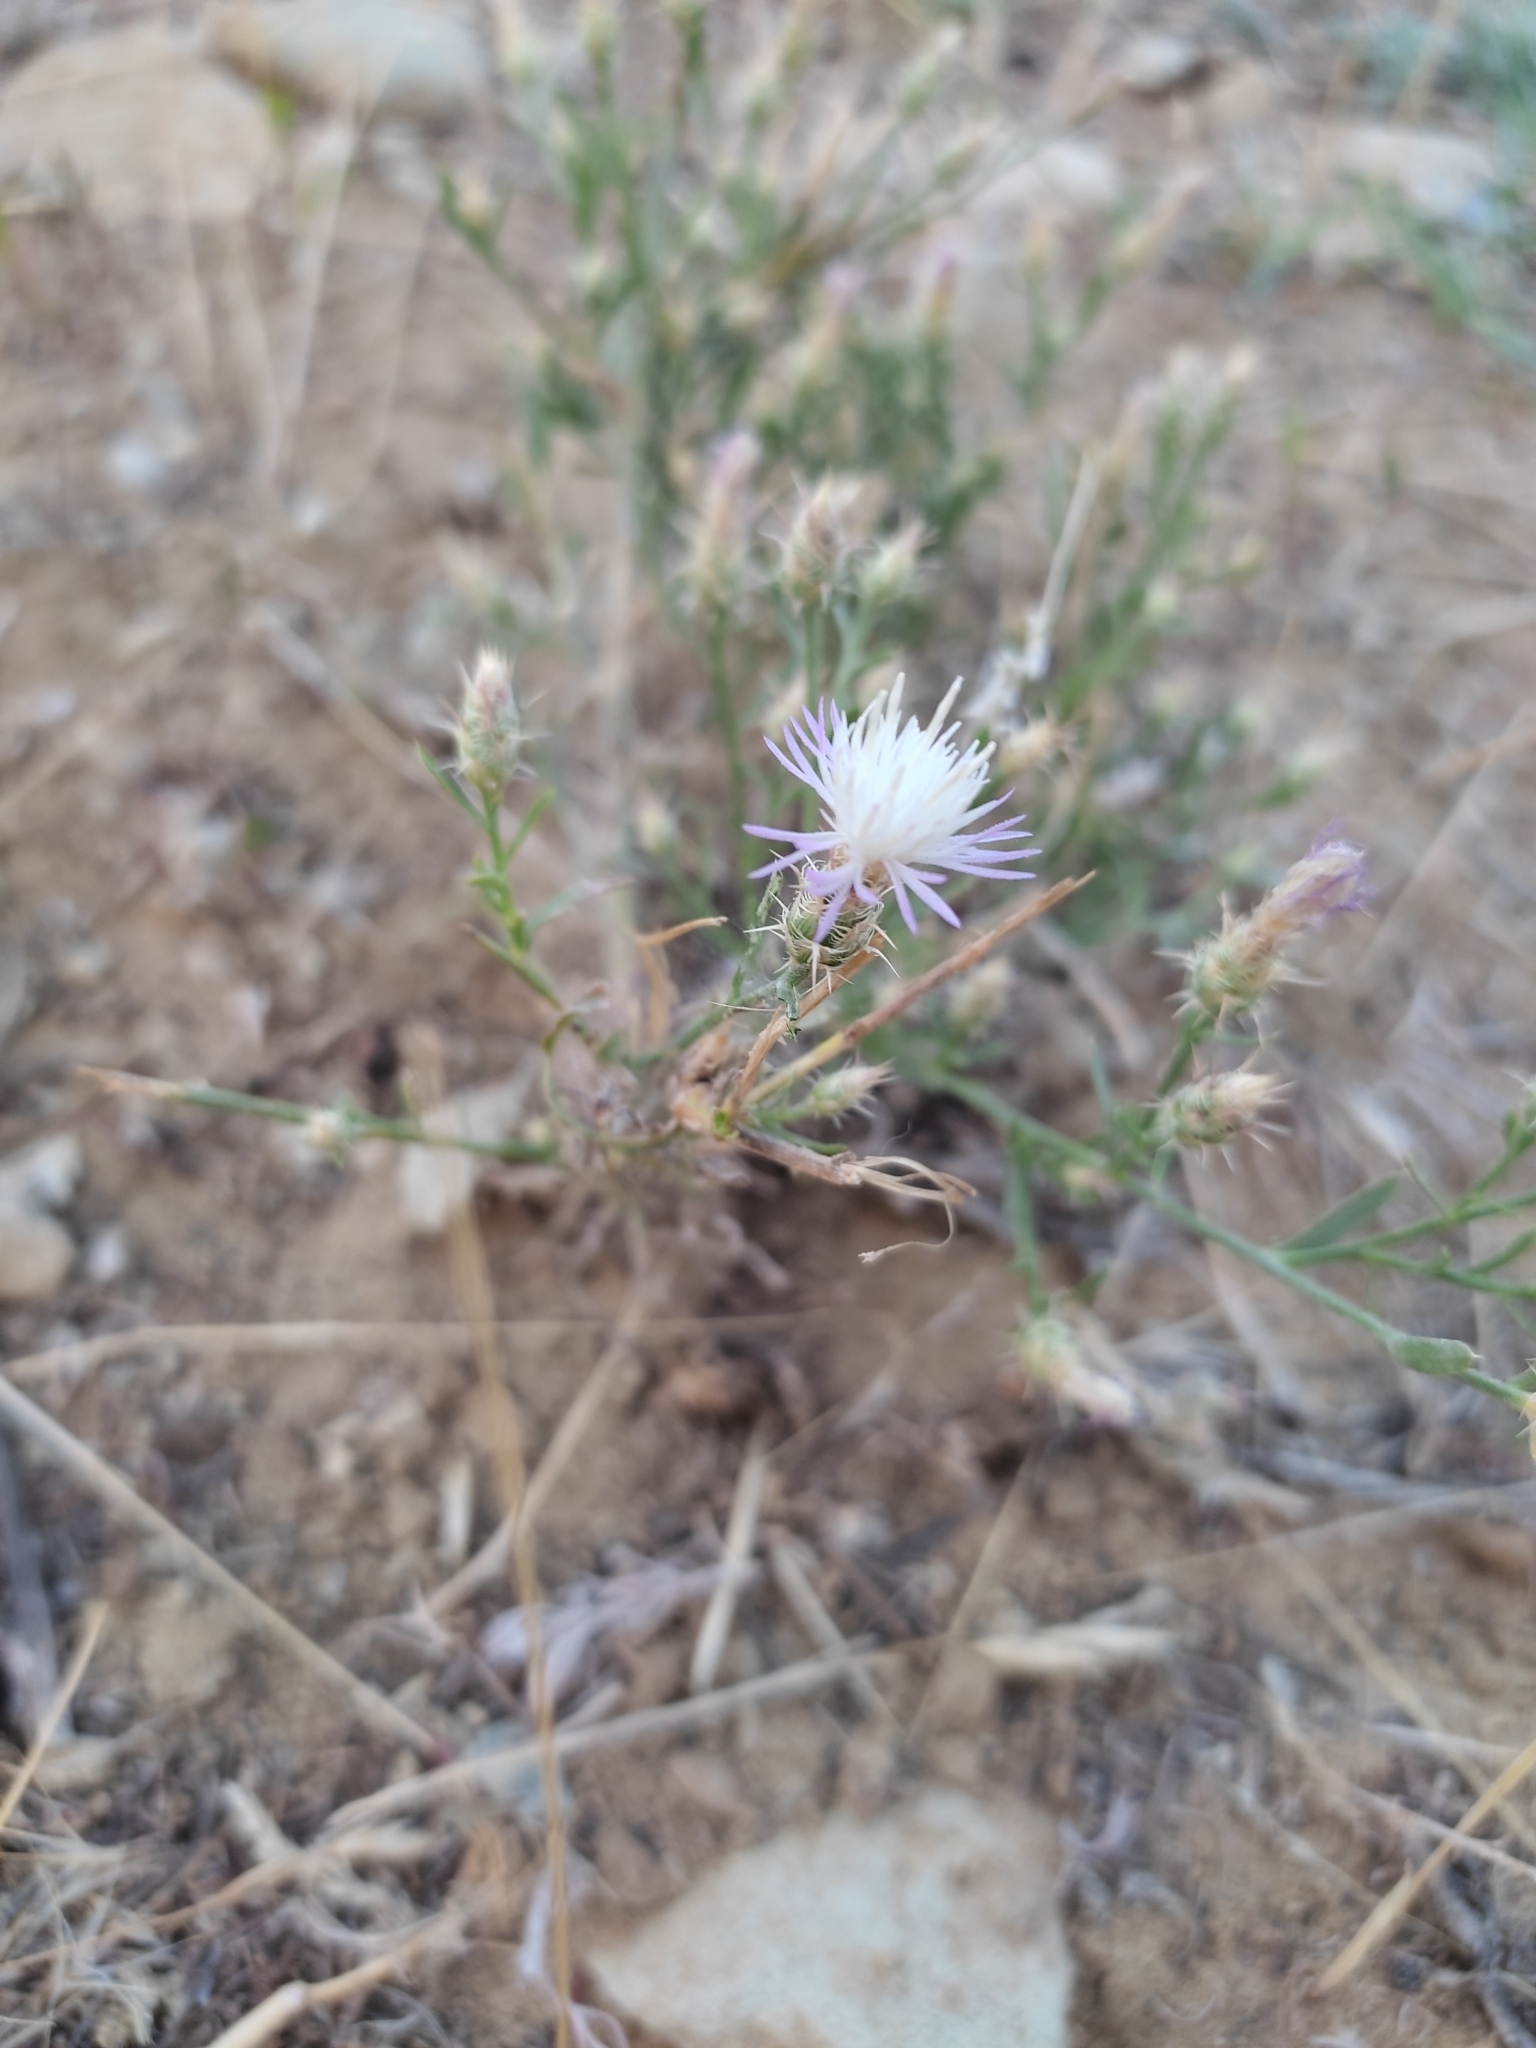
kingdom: Plantae
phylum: Tracheophyta
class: Magnoliopsida
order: Asterales
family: Asteraceae
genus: Centaurea
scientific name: Centaurea diffusa
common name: Diffuse knapweed
